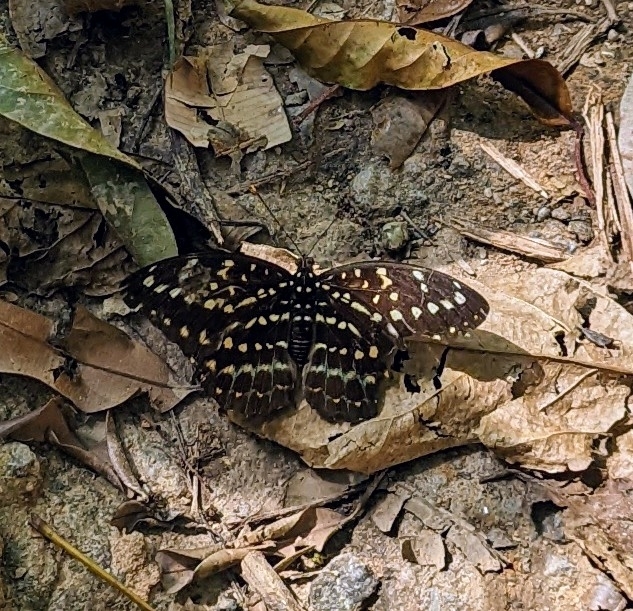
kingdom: Animalia
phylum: Arthropoda
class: Insecta
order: Lepidoptera
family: Nymphalidae
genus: Lexias
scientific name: Lexias pardalis
